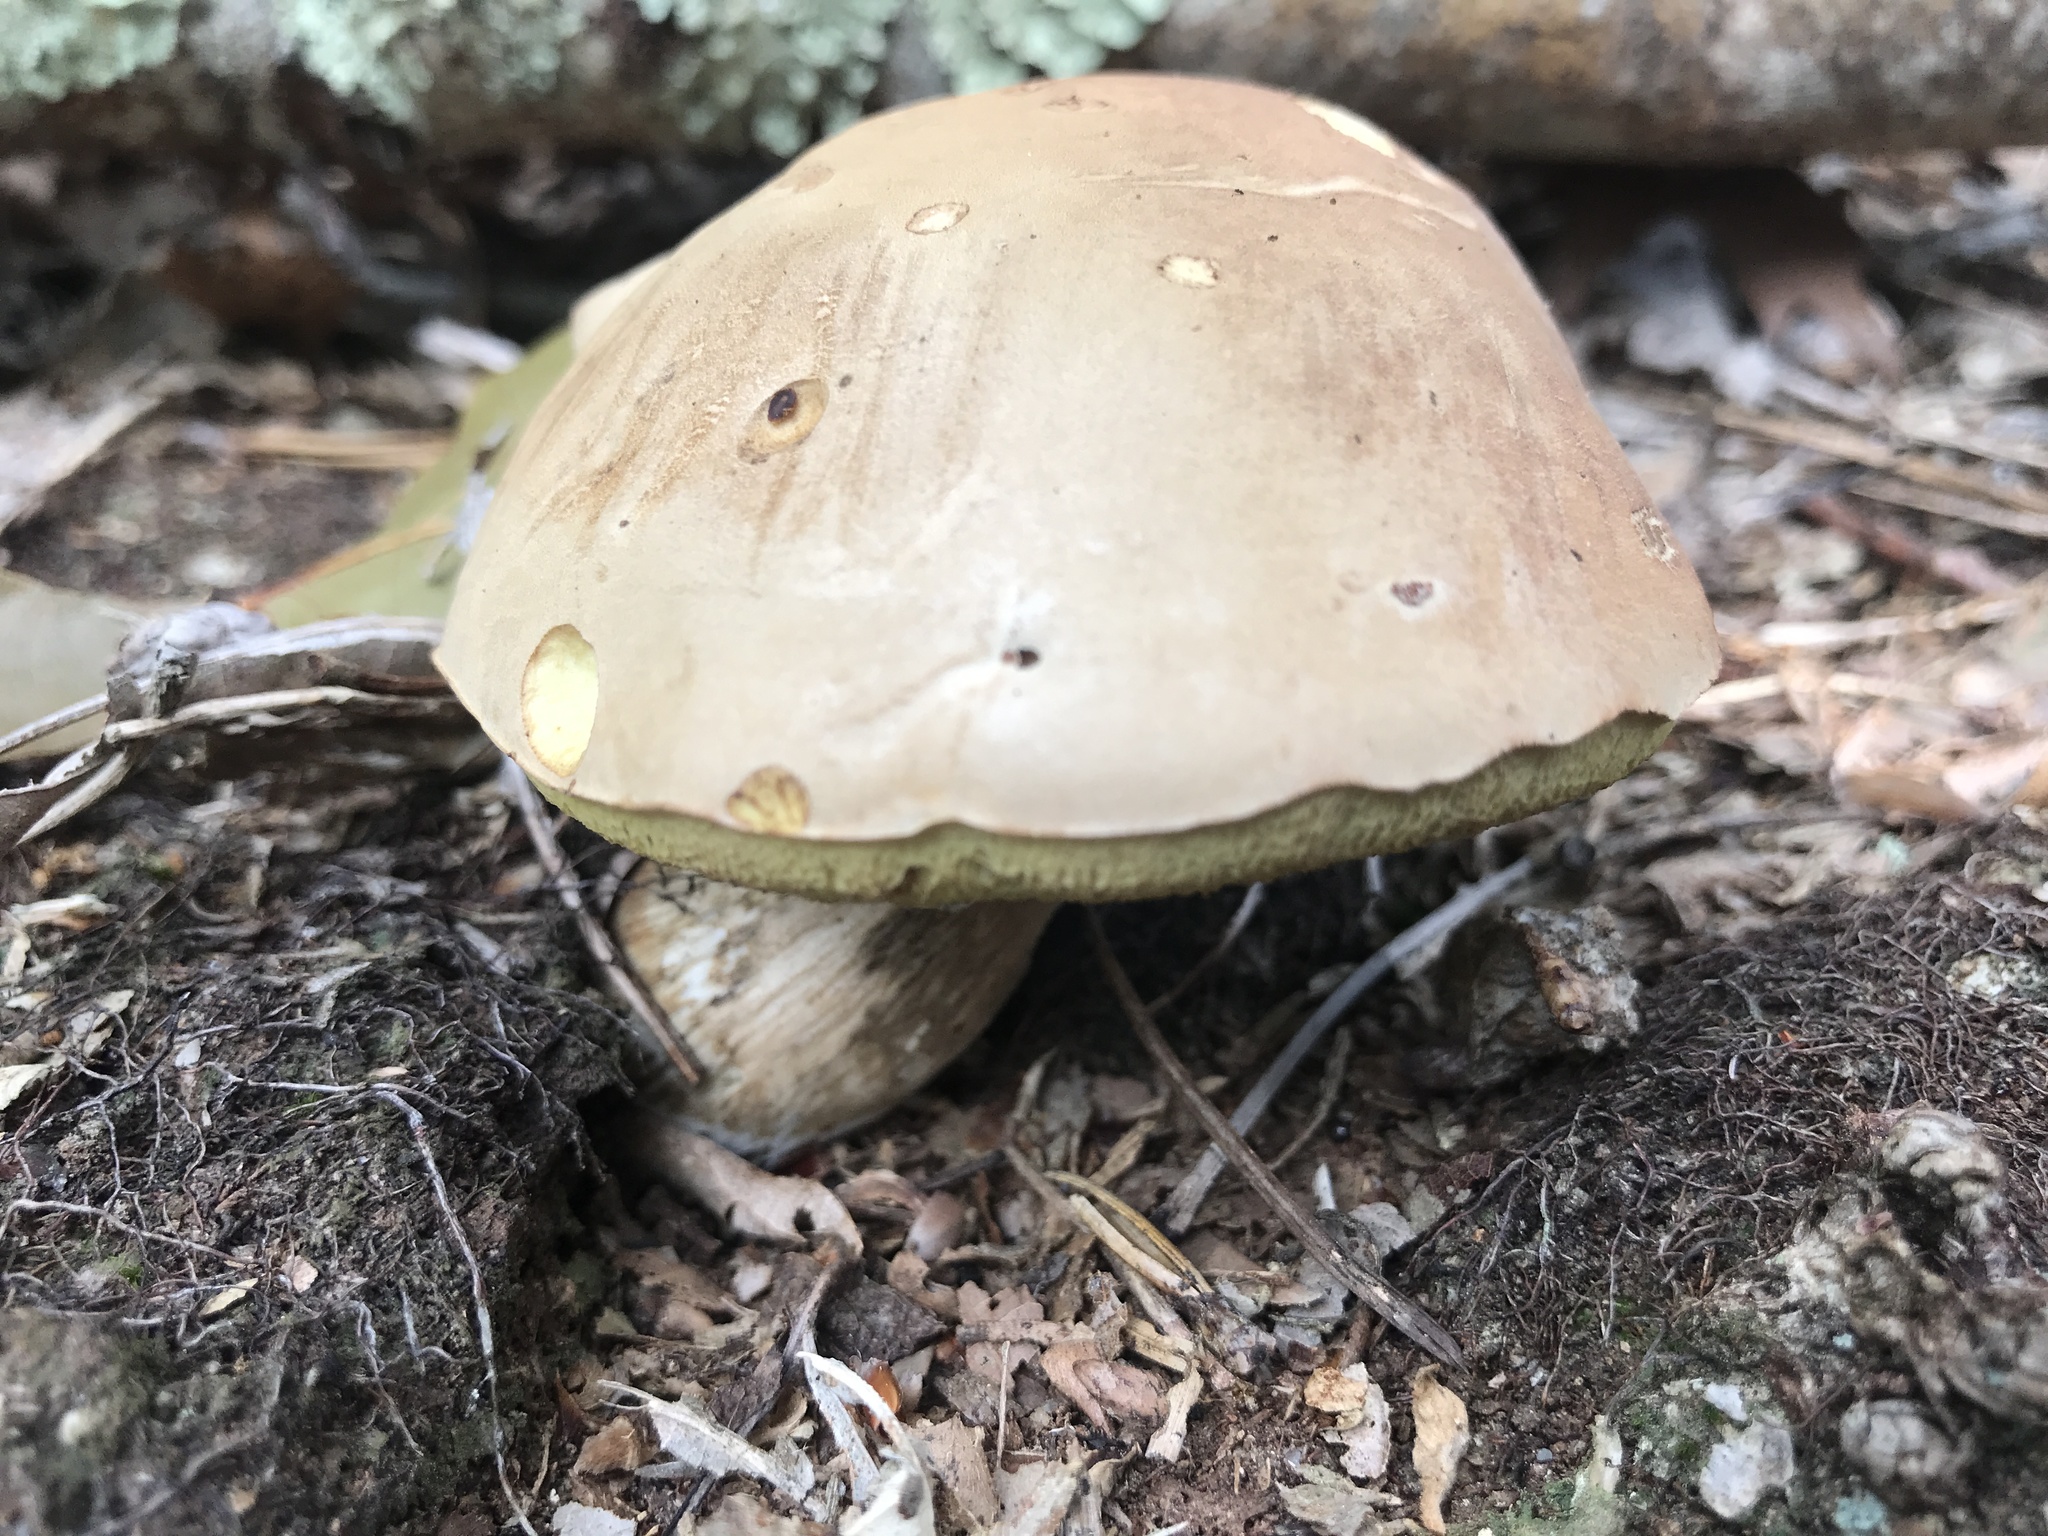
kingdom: Fungi
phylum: Basidiomycota
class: Agaricomycetes
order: Boletales
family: Boletaceae
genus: Imleria
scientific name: Imleria pallida
